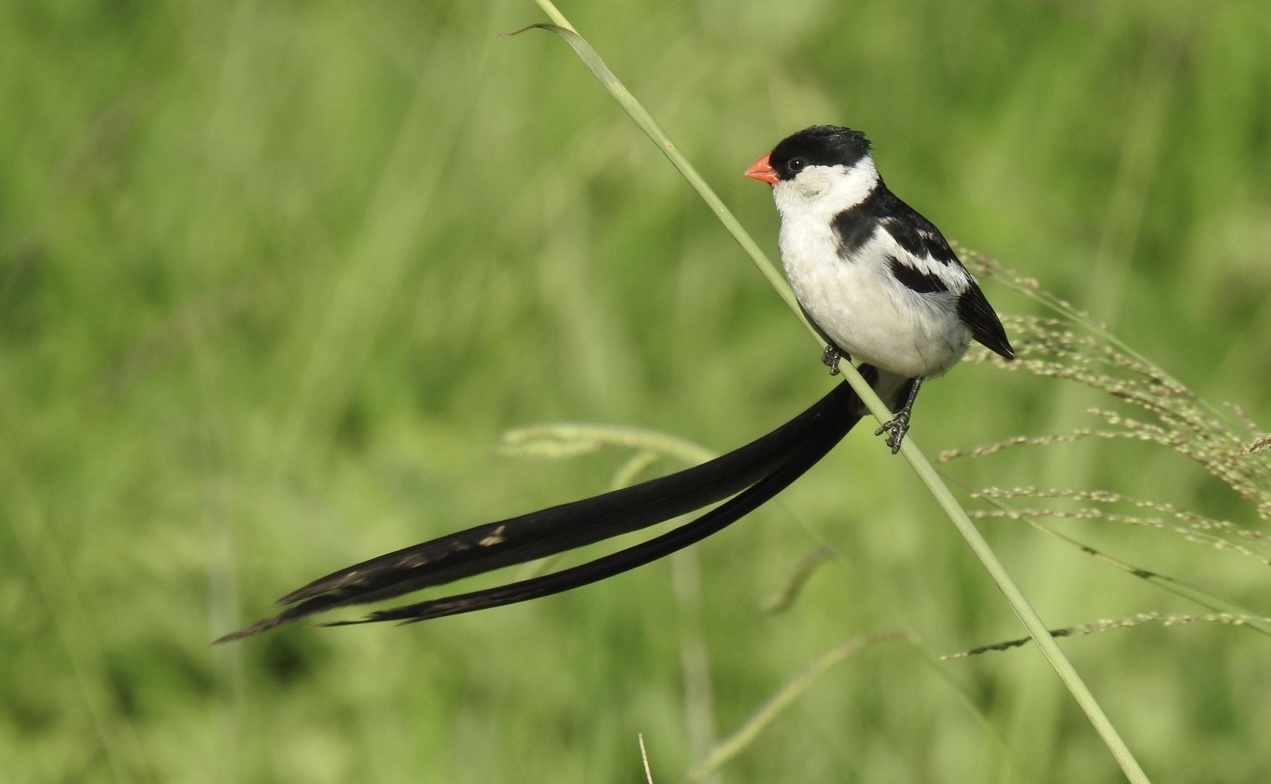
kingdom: Animalia
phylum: Chordata
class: Aves
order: Passeriformes
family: Viduidae
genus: Vidua
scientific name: Vidua macroura
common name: Pin-tailed whydah
